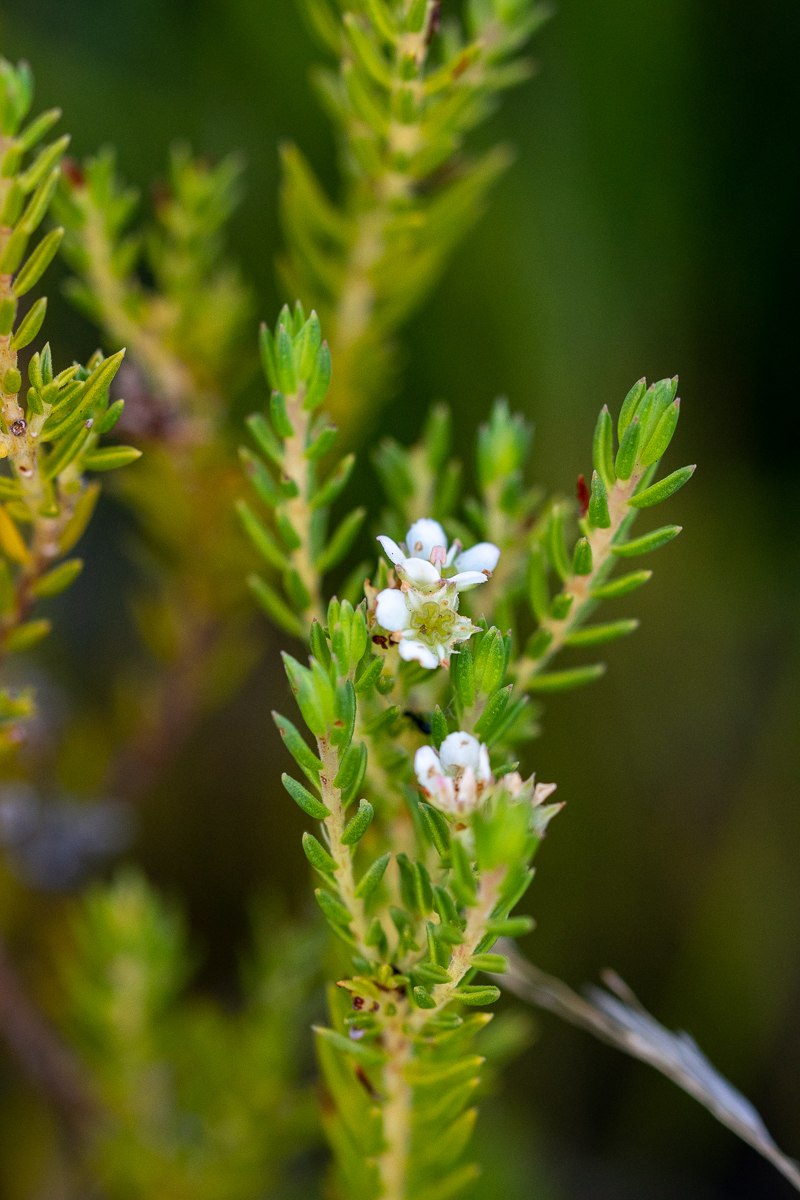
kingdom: Plantae
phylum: Tracheophyta
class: Magnoliopsida
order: Sapindales
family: Rutaceae
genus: Diosma
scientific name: Diosma oppositifolia
